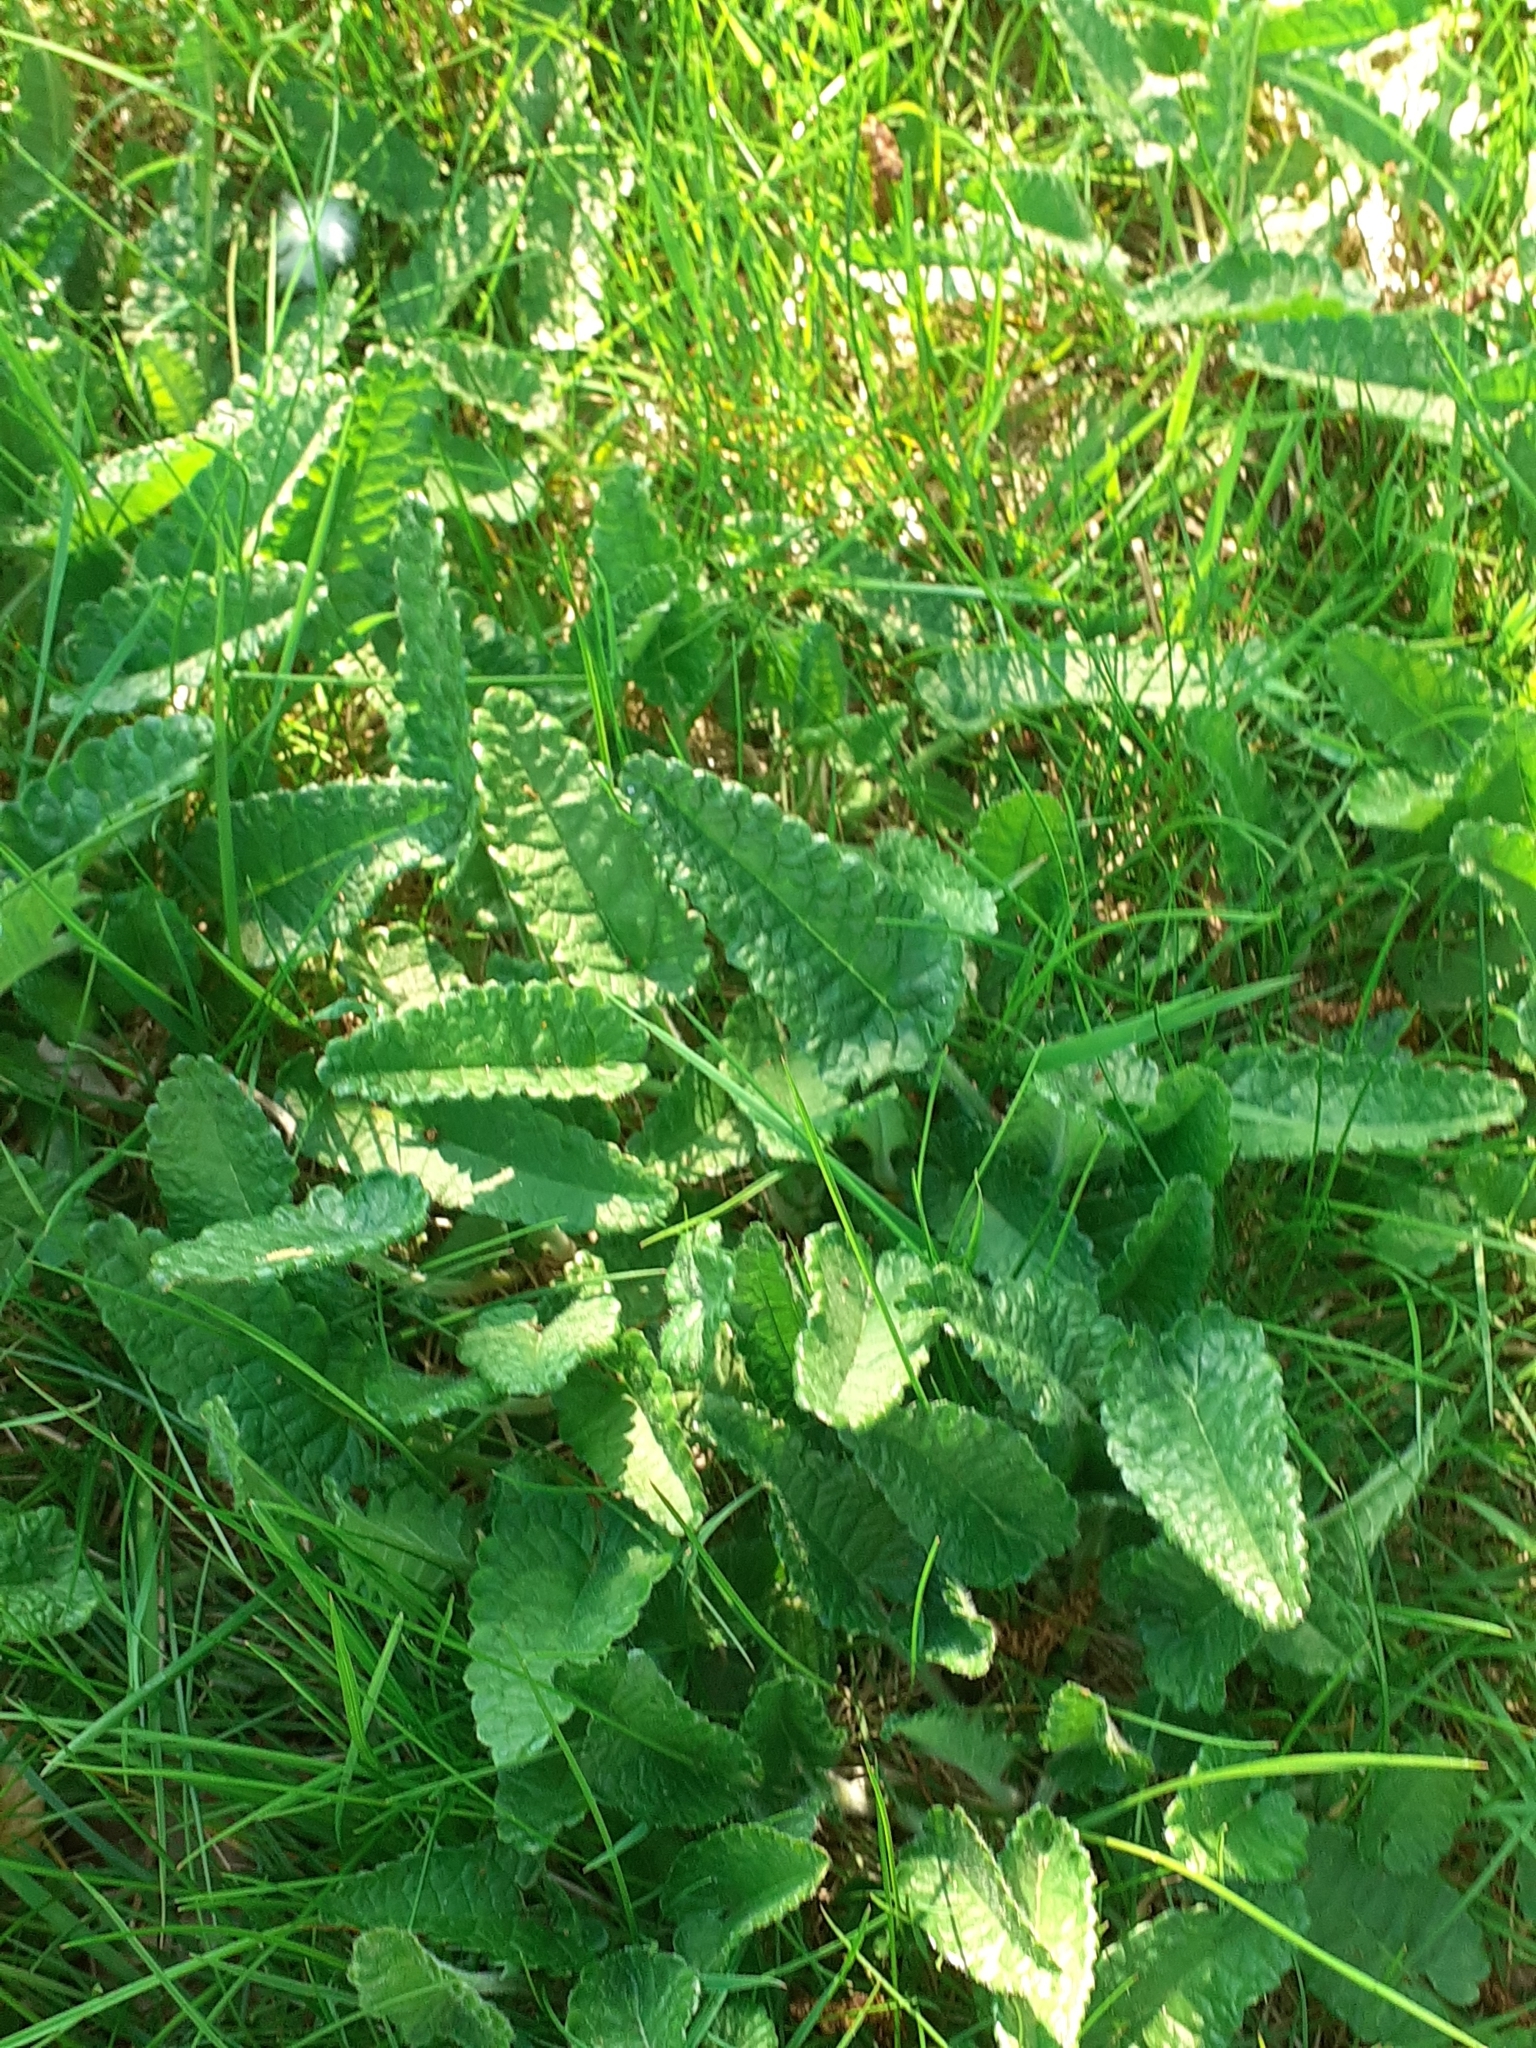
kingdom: Plantae
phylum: Tracheophyta
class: Magnoliopsida
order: Lamiales
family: Lamiaceae
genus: Betonica
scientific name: Betonica officinalis
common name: Bishop's-wort
